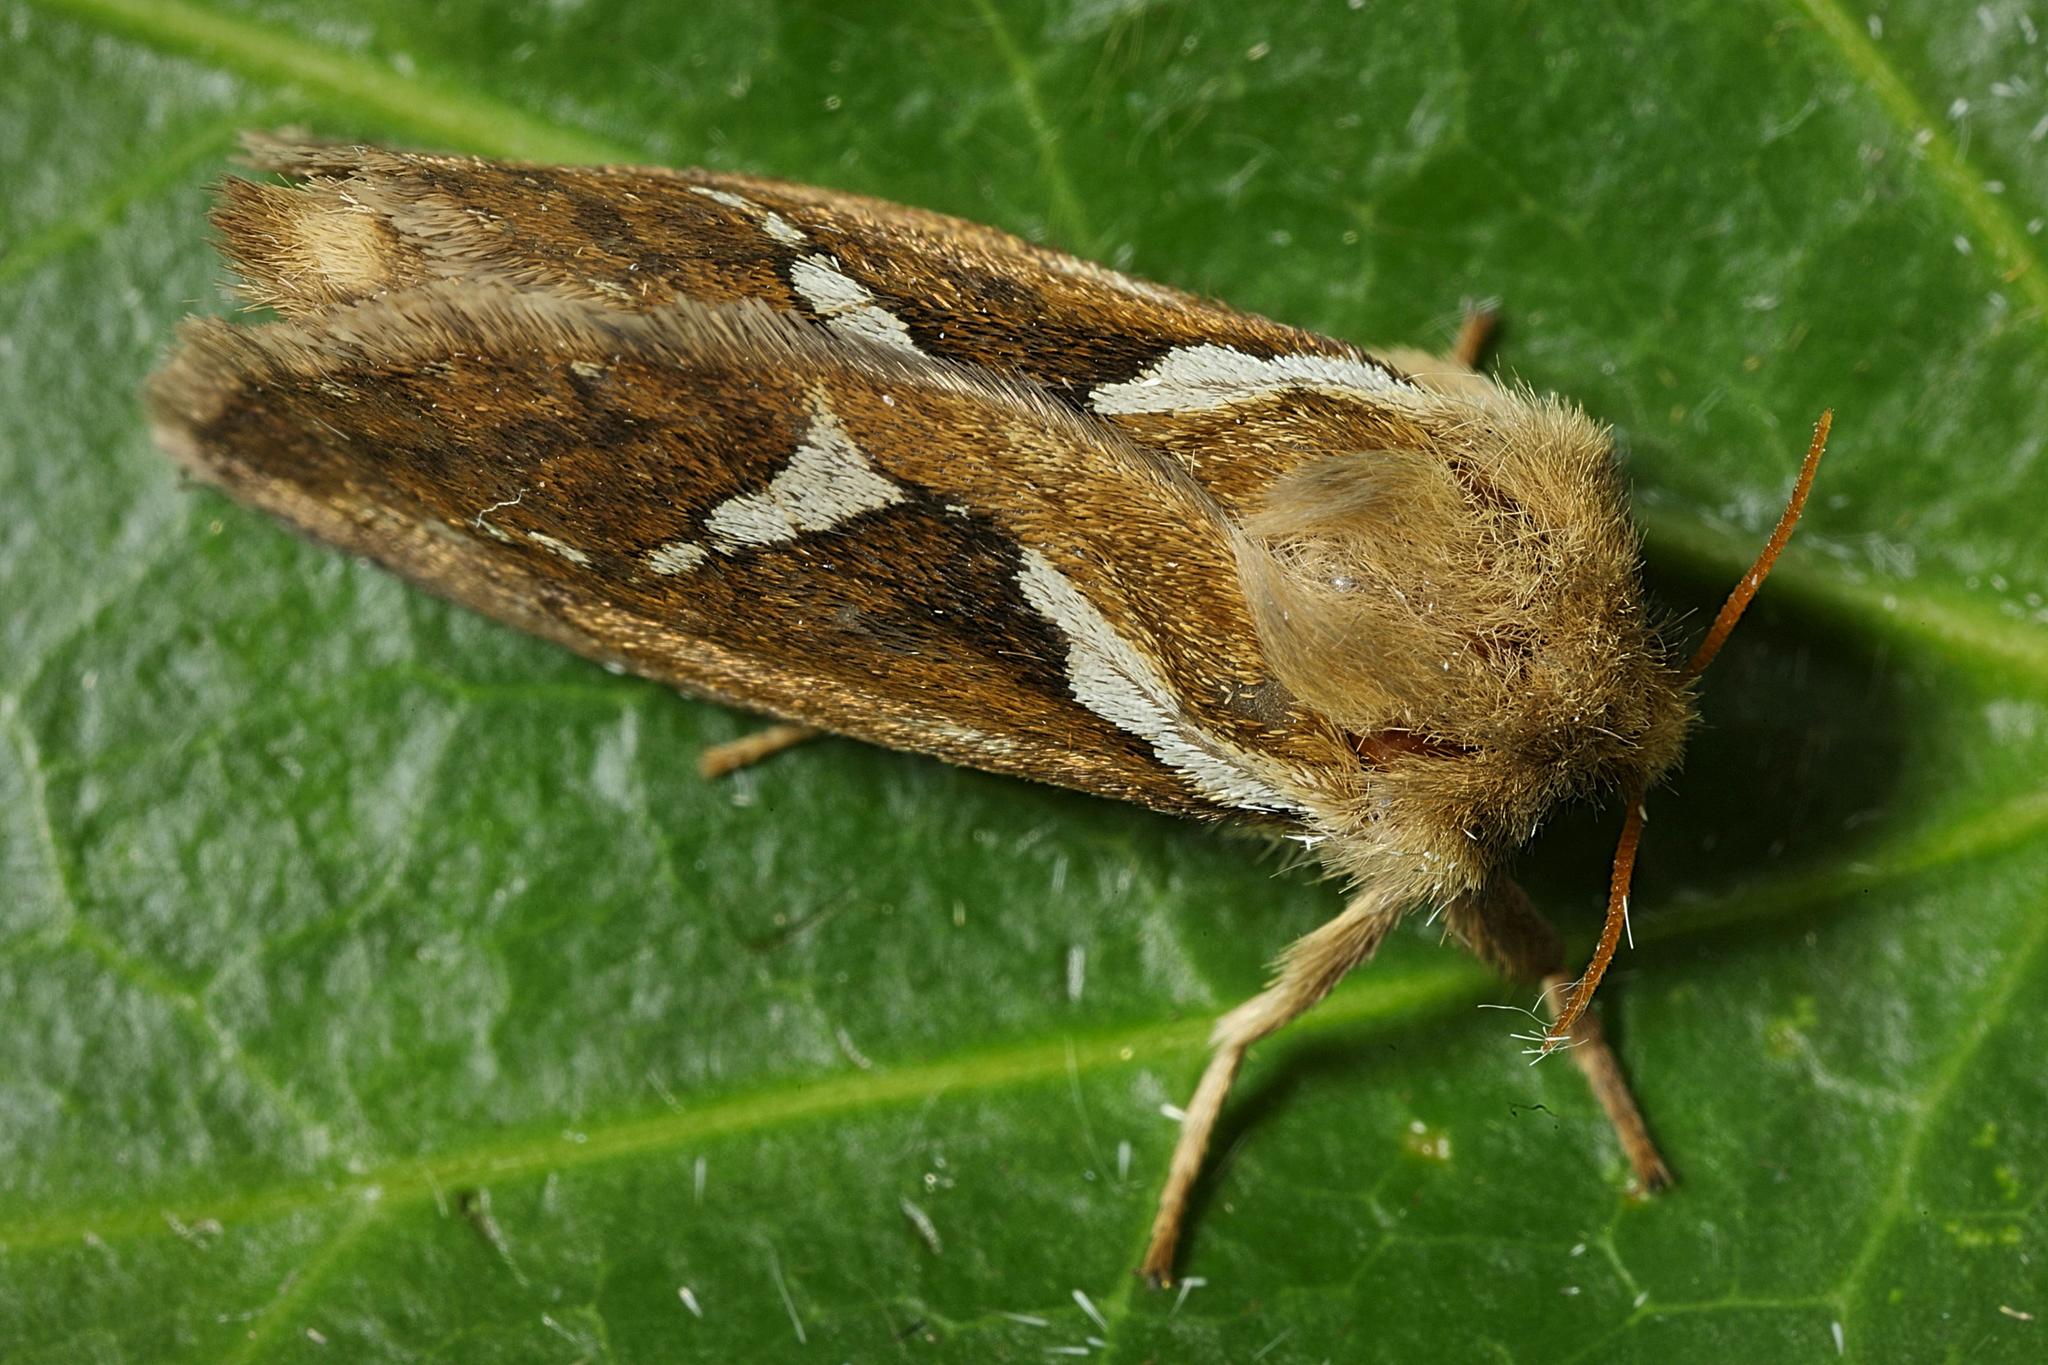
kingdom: Animalia
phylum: Arthropoda
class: Insecta
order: Lepidoptera
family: Hepialidae
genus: Korscheltellus
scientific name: Korscheltellus lupulina
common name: Common swift
